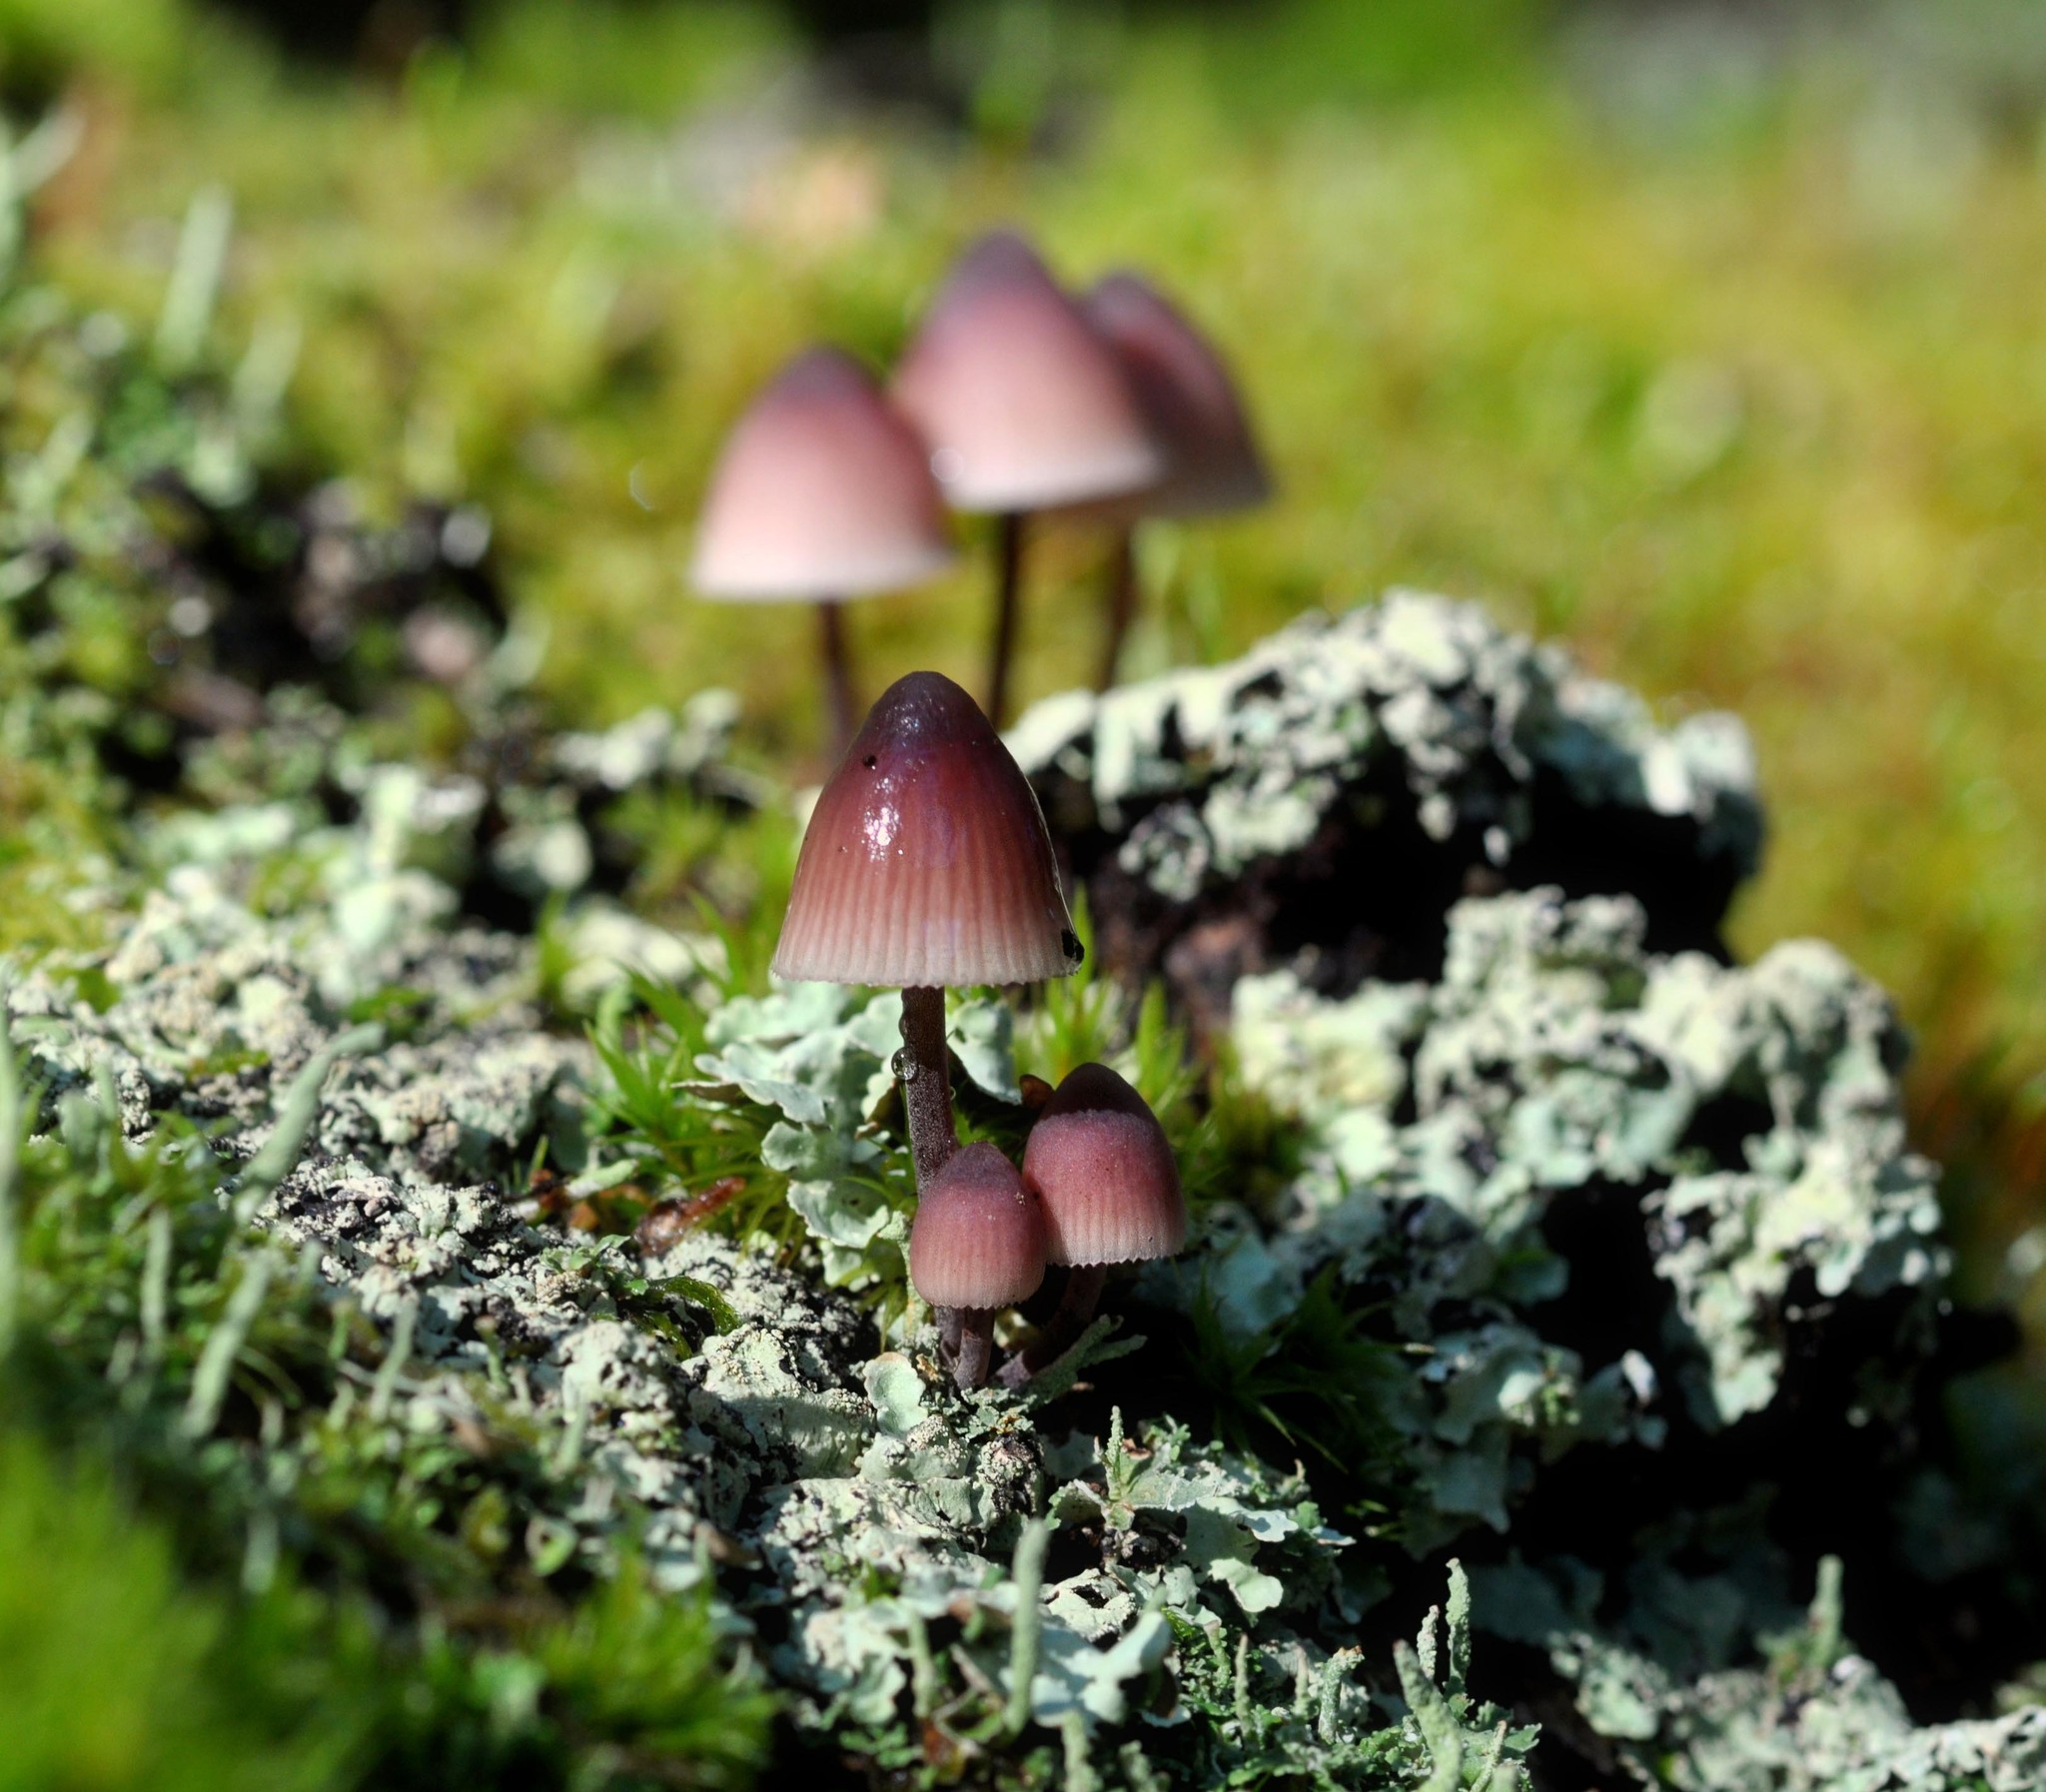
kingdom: Fungi
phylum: Basidiomycota
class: Agaricomycetes
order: Agaricales
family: Mycenaceae
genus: Mycena
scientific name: Mycena haematopus
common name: Burgundydrop bonnet
